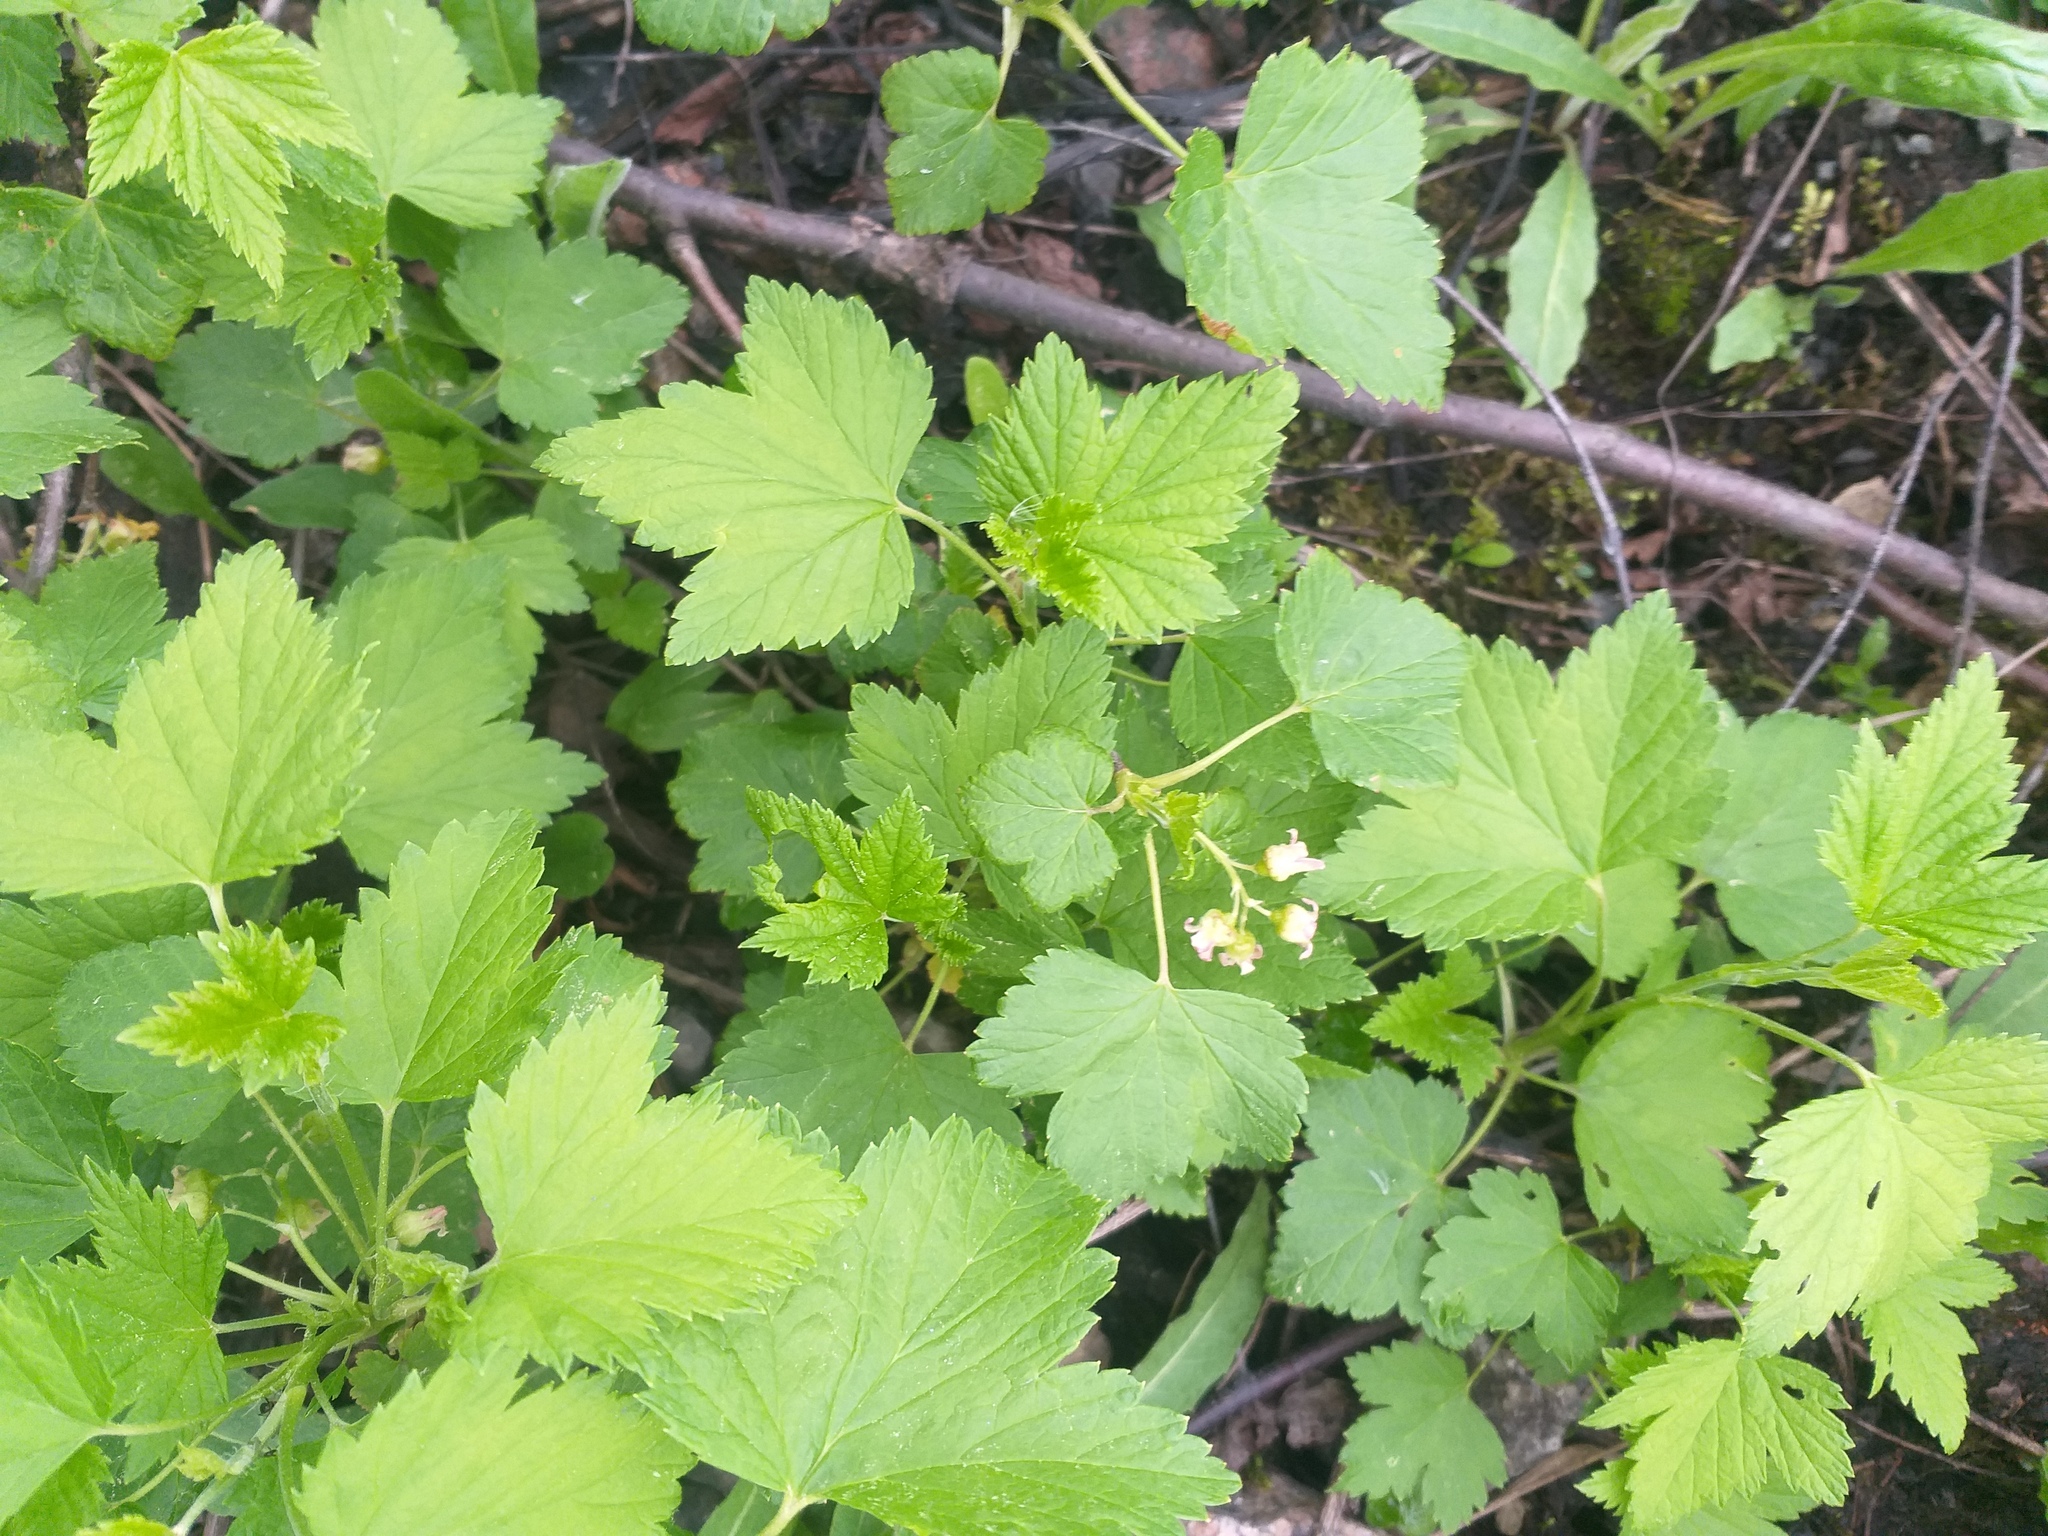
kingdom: Plantae
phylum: Tracheophyta
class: Magnoliopsida
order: Saxifragales
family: Grossulariaceae
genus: Ribes
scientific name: Ribes nigrum
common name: Black currant
